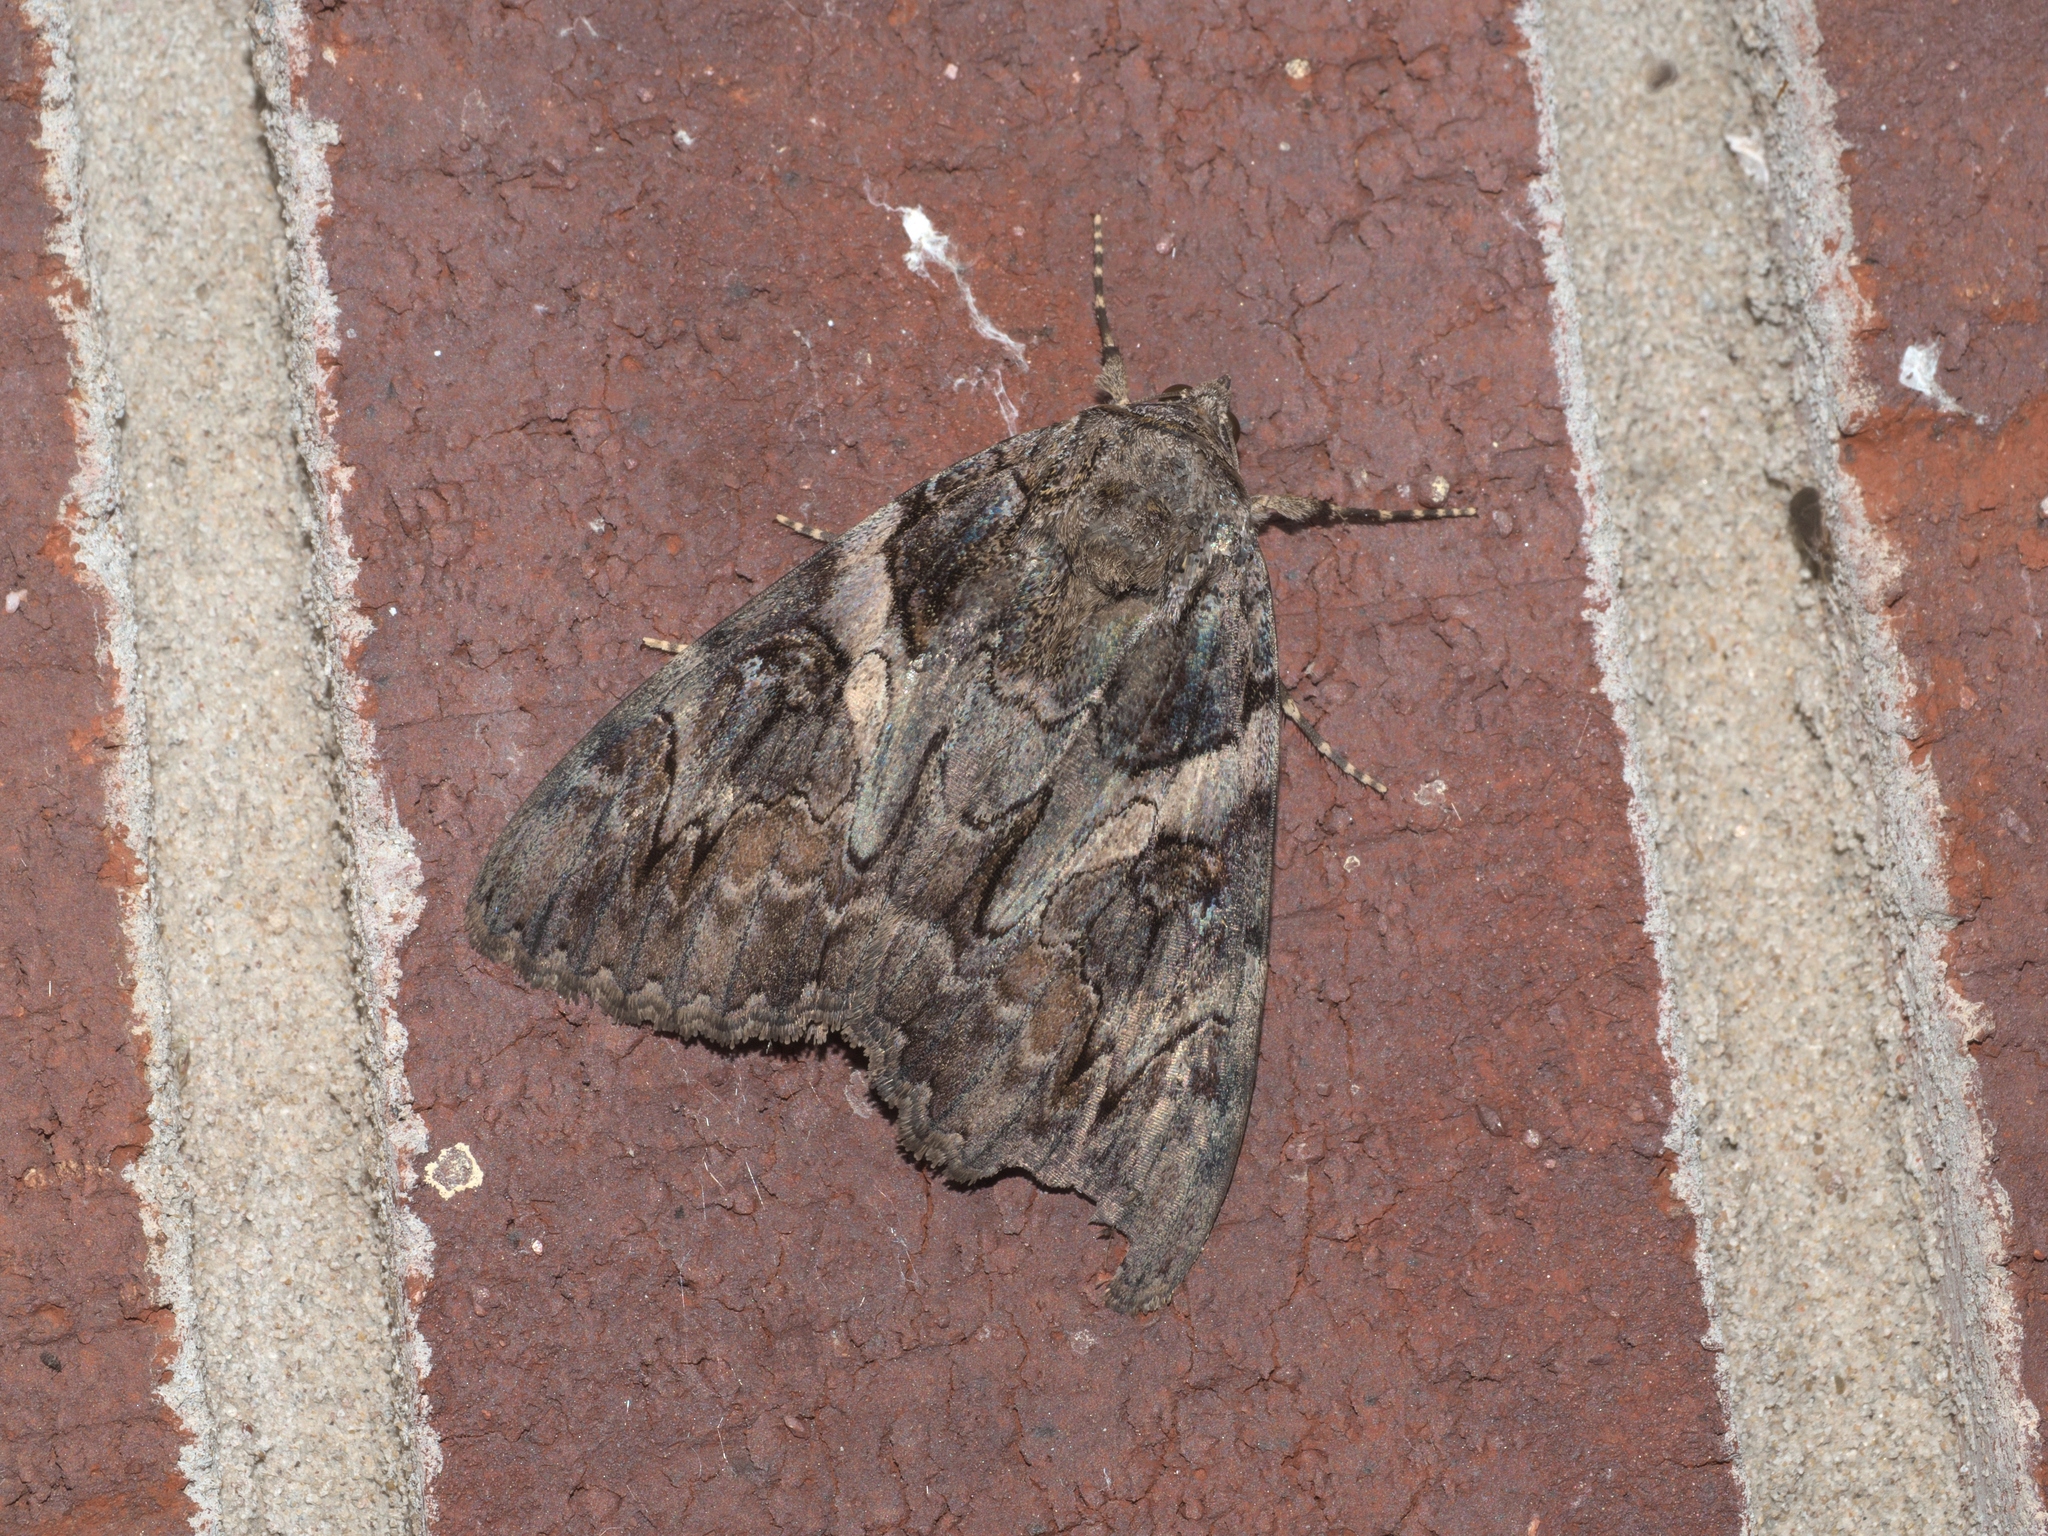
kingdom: Animalia
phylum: Arthropoda
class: Insecta
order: Lepidoptera
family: Erebidae
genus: Catocala
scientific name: Catocala piatrix
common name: The penitent underwing
